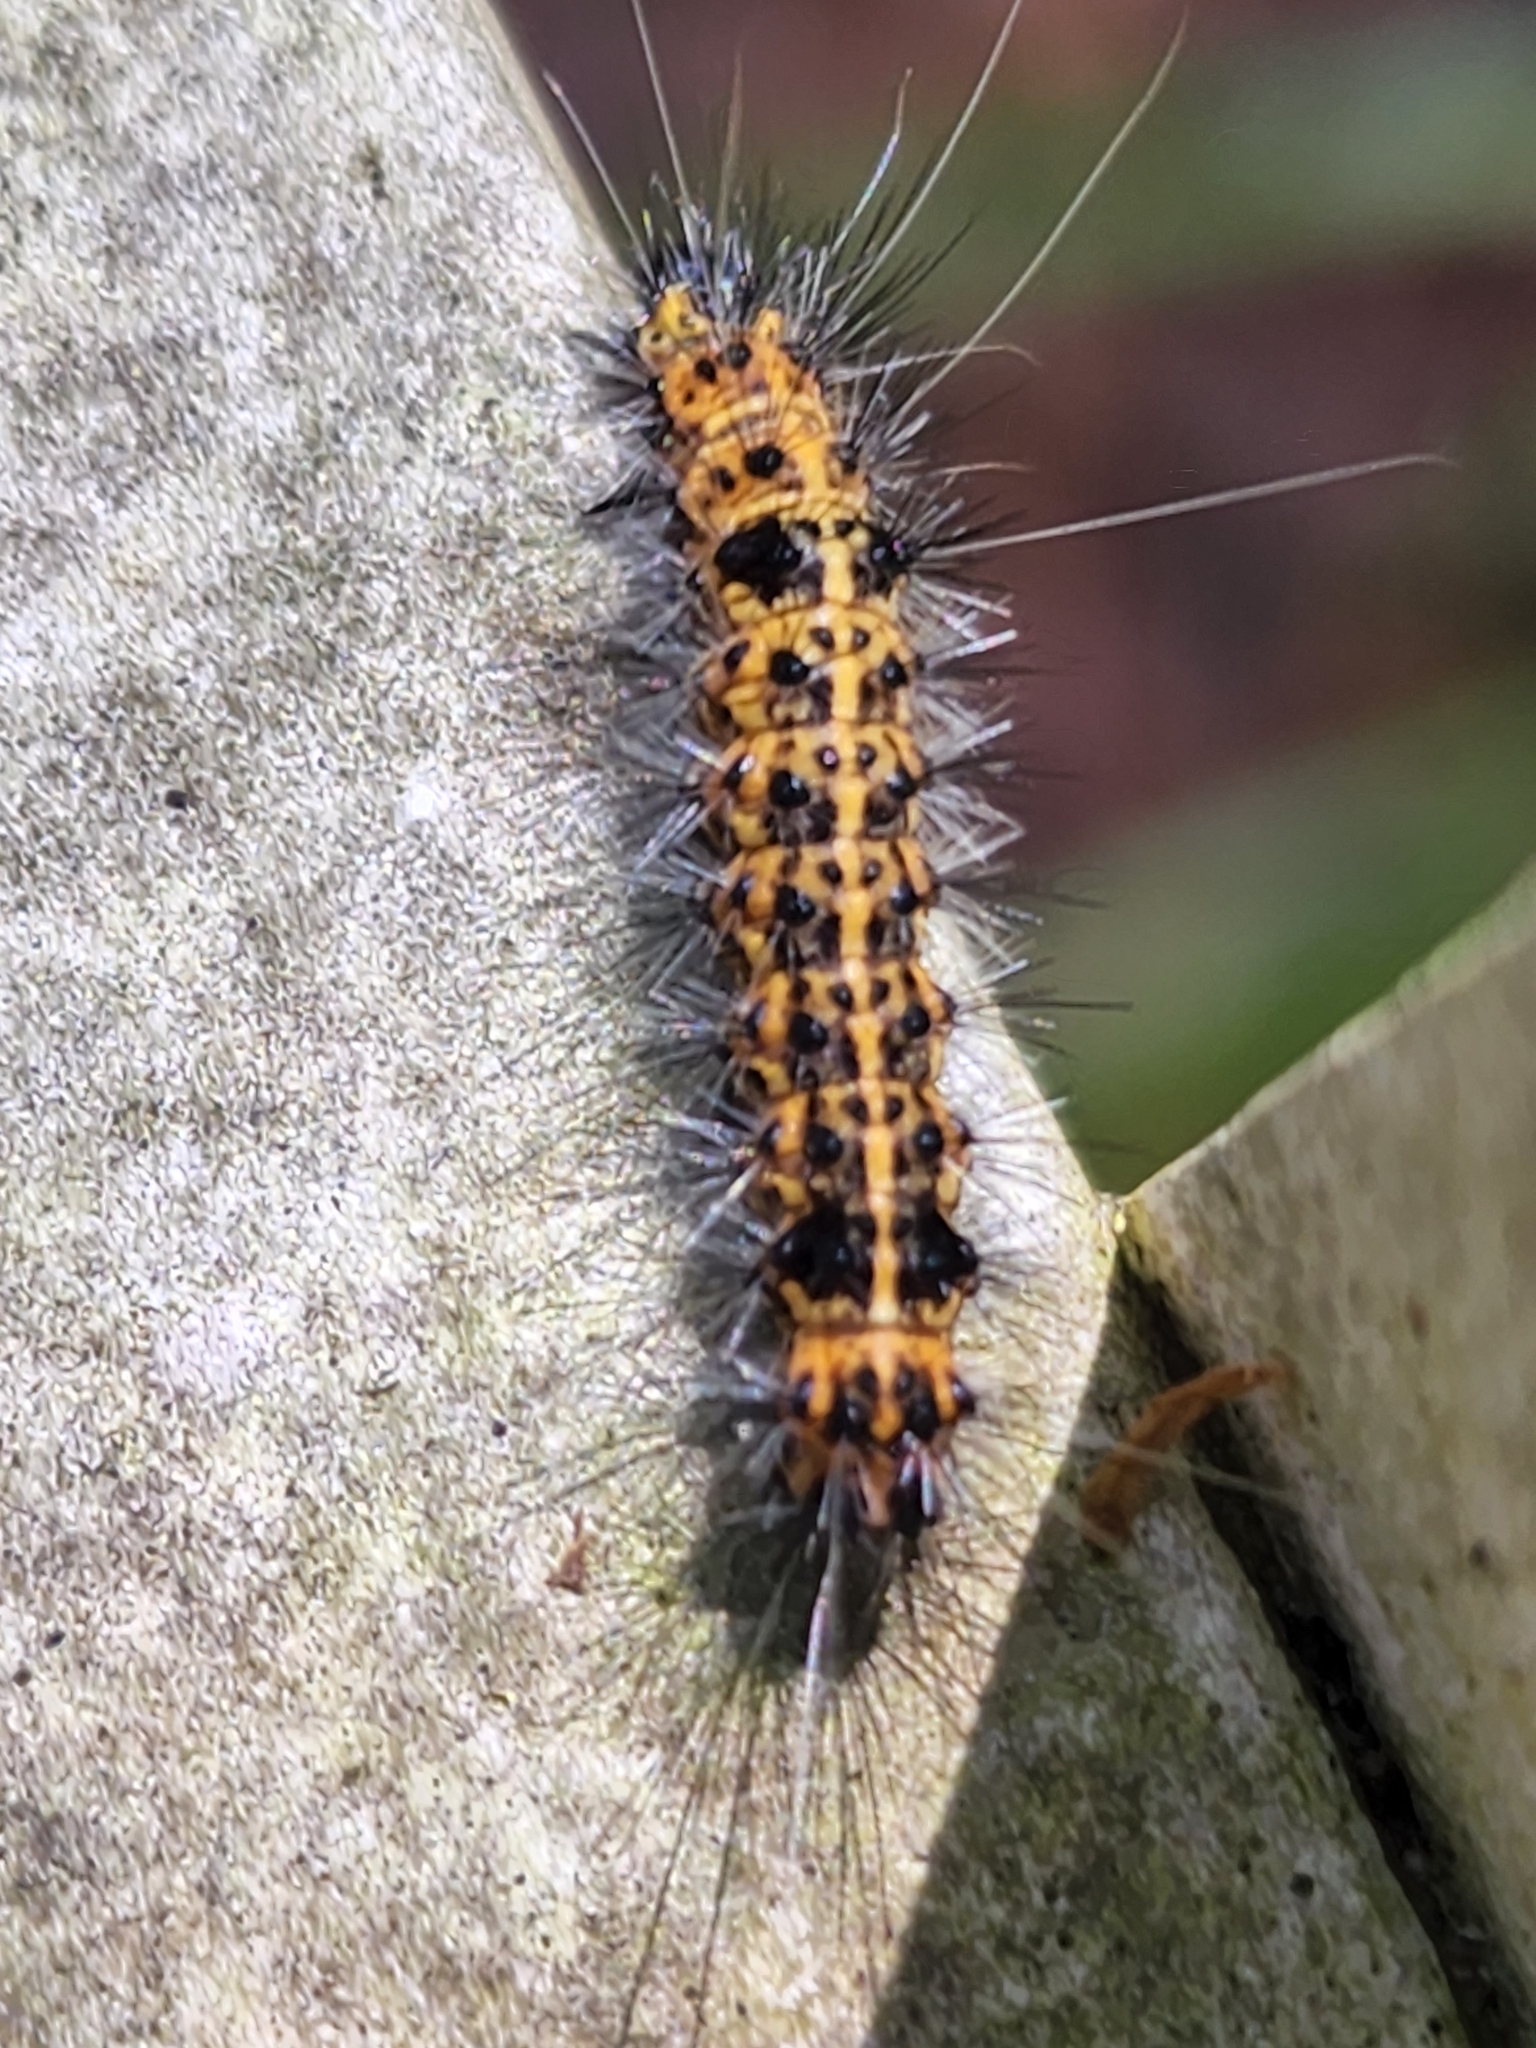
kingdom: Animalia
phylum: Arthropoda
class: Insecta
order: Lepidoptera
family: Erebidae
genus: Spilosoma
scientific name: Spilosoma dubia
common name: Dubious tiger moth
